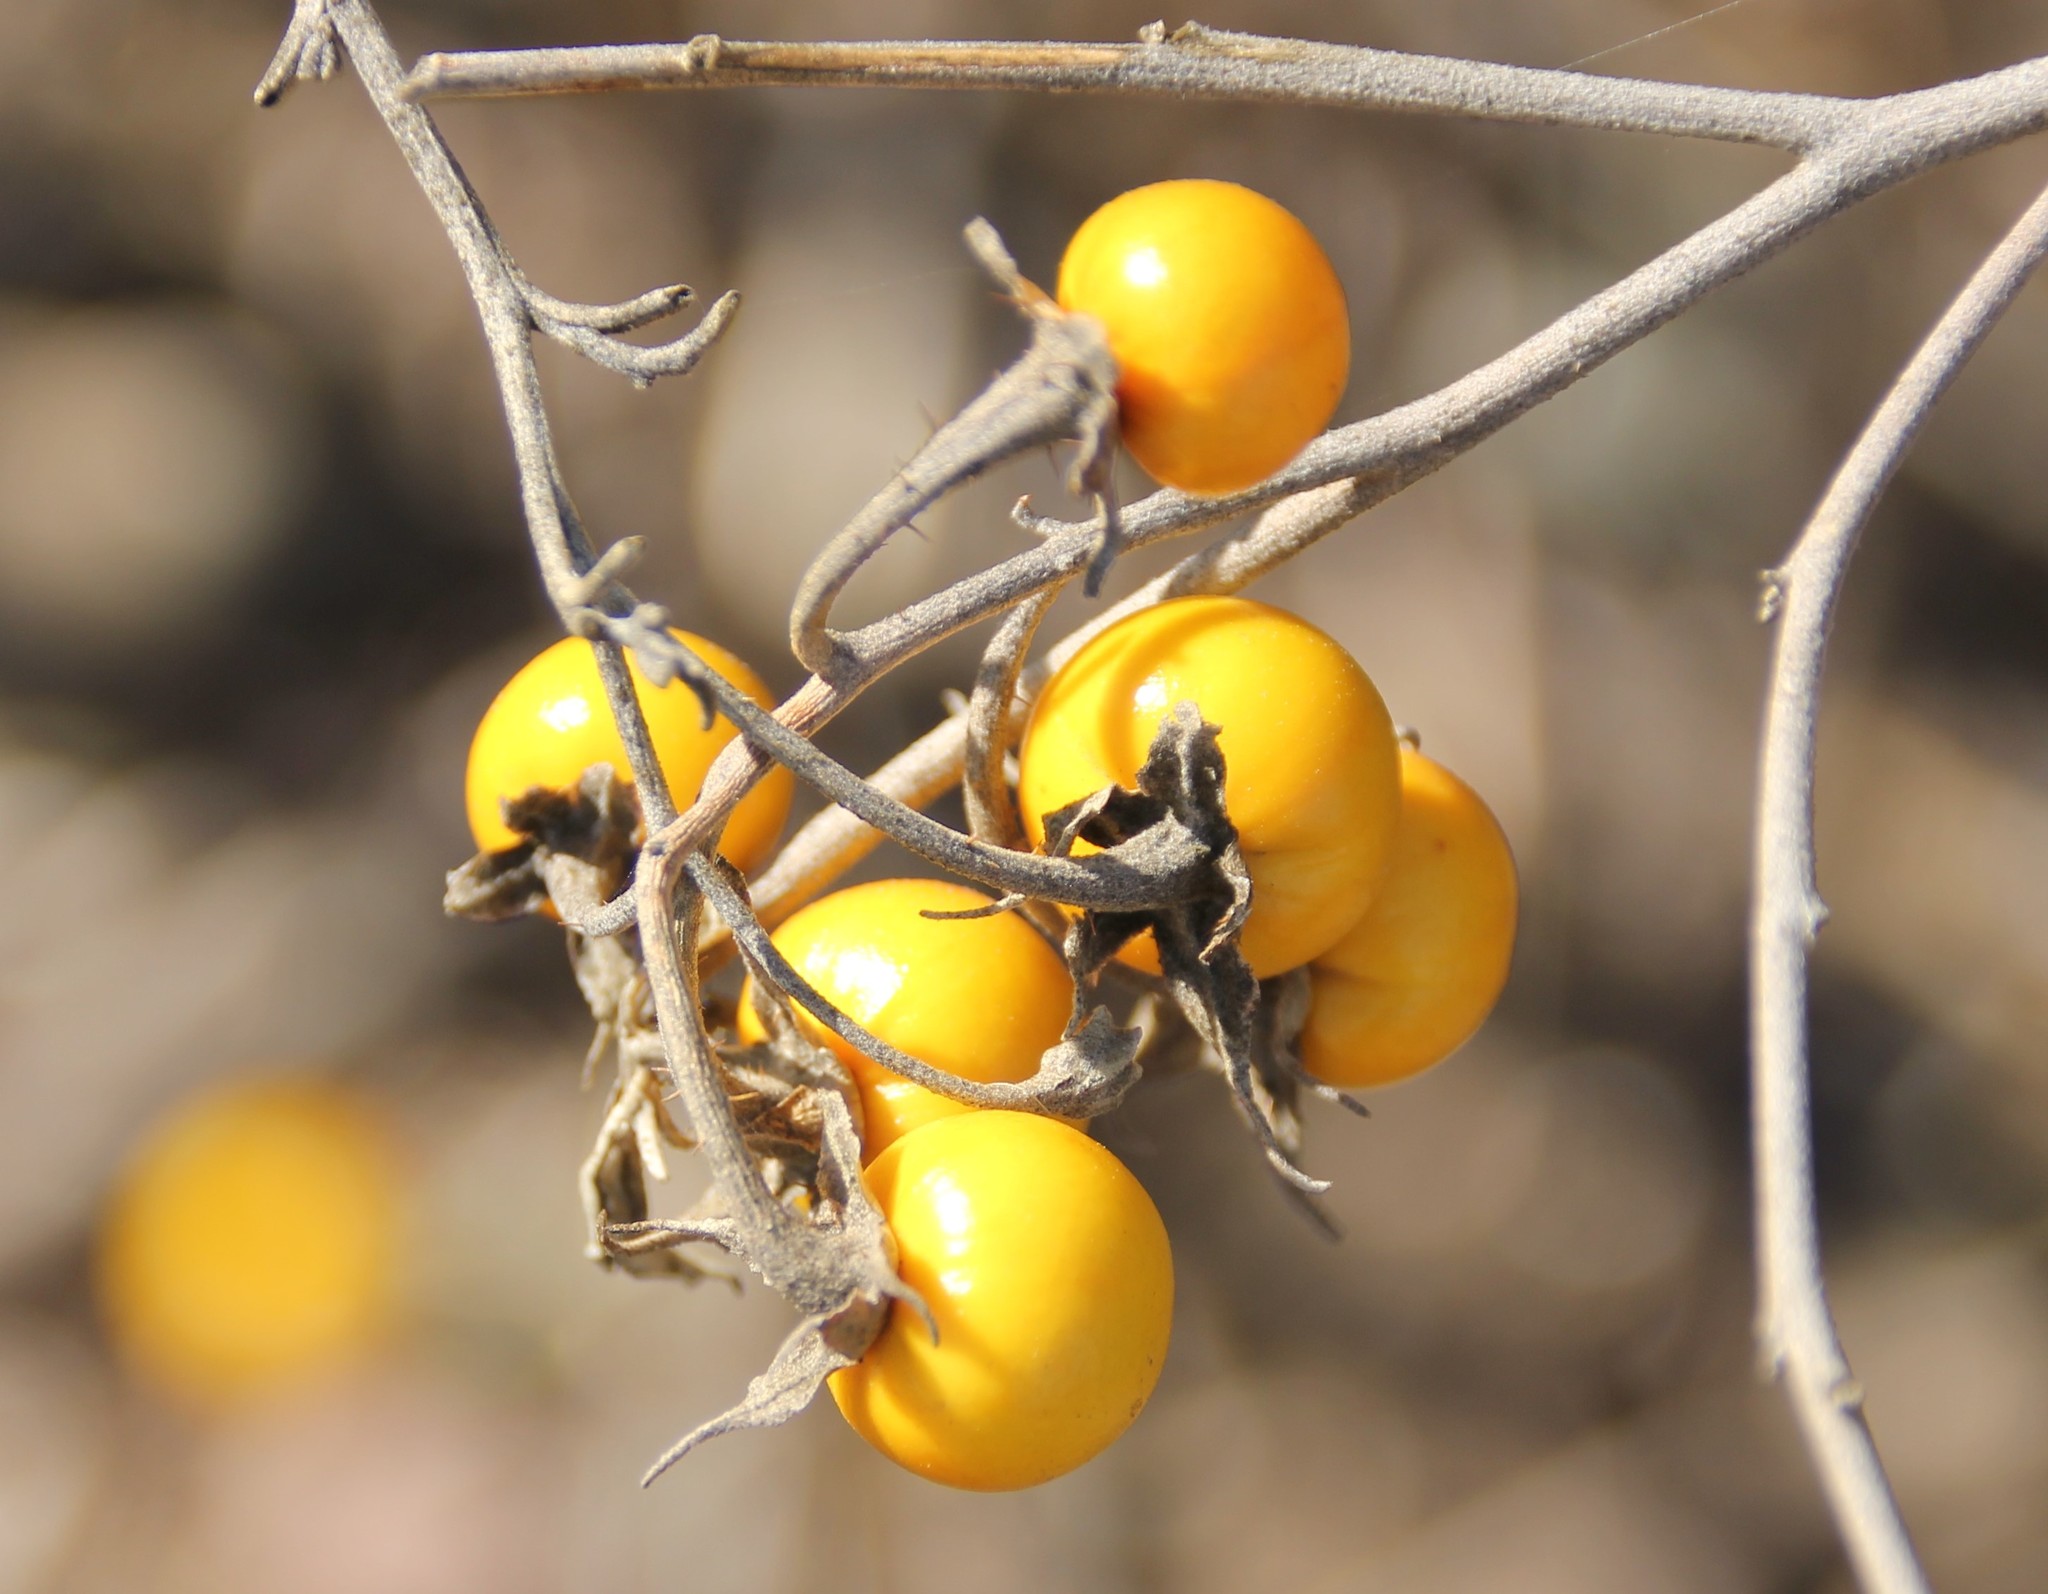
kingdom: Plantae
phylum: Tracheophyta
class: Magnoliopsida
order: Solanales
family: Solanaceae
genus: Solanum
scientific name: Solanum elaeagnifolium
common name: Silverleaf nightshade
